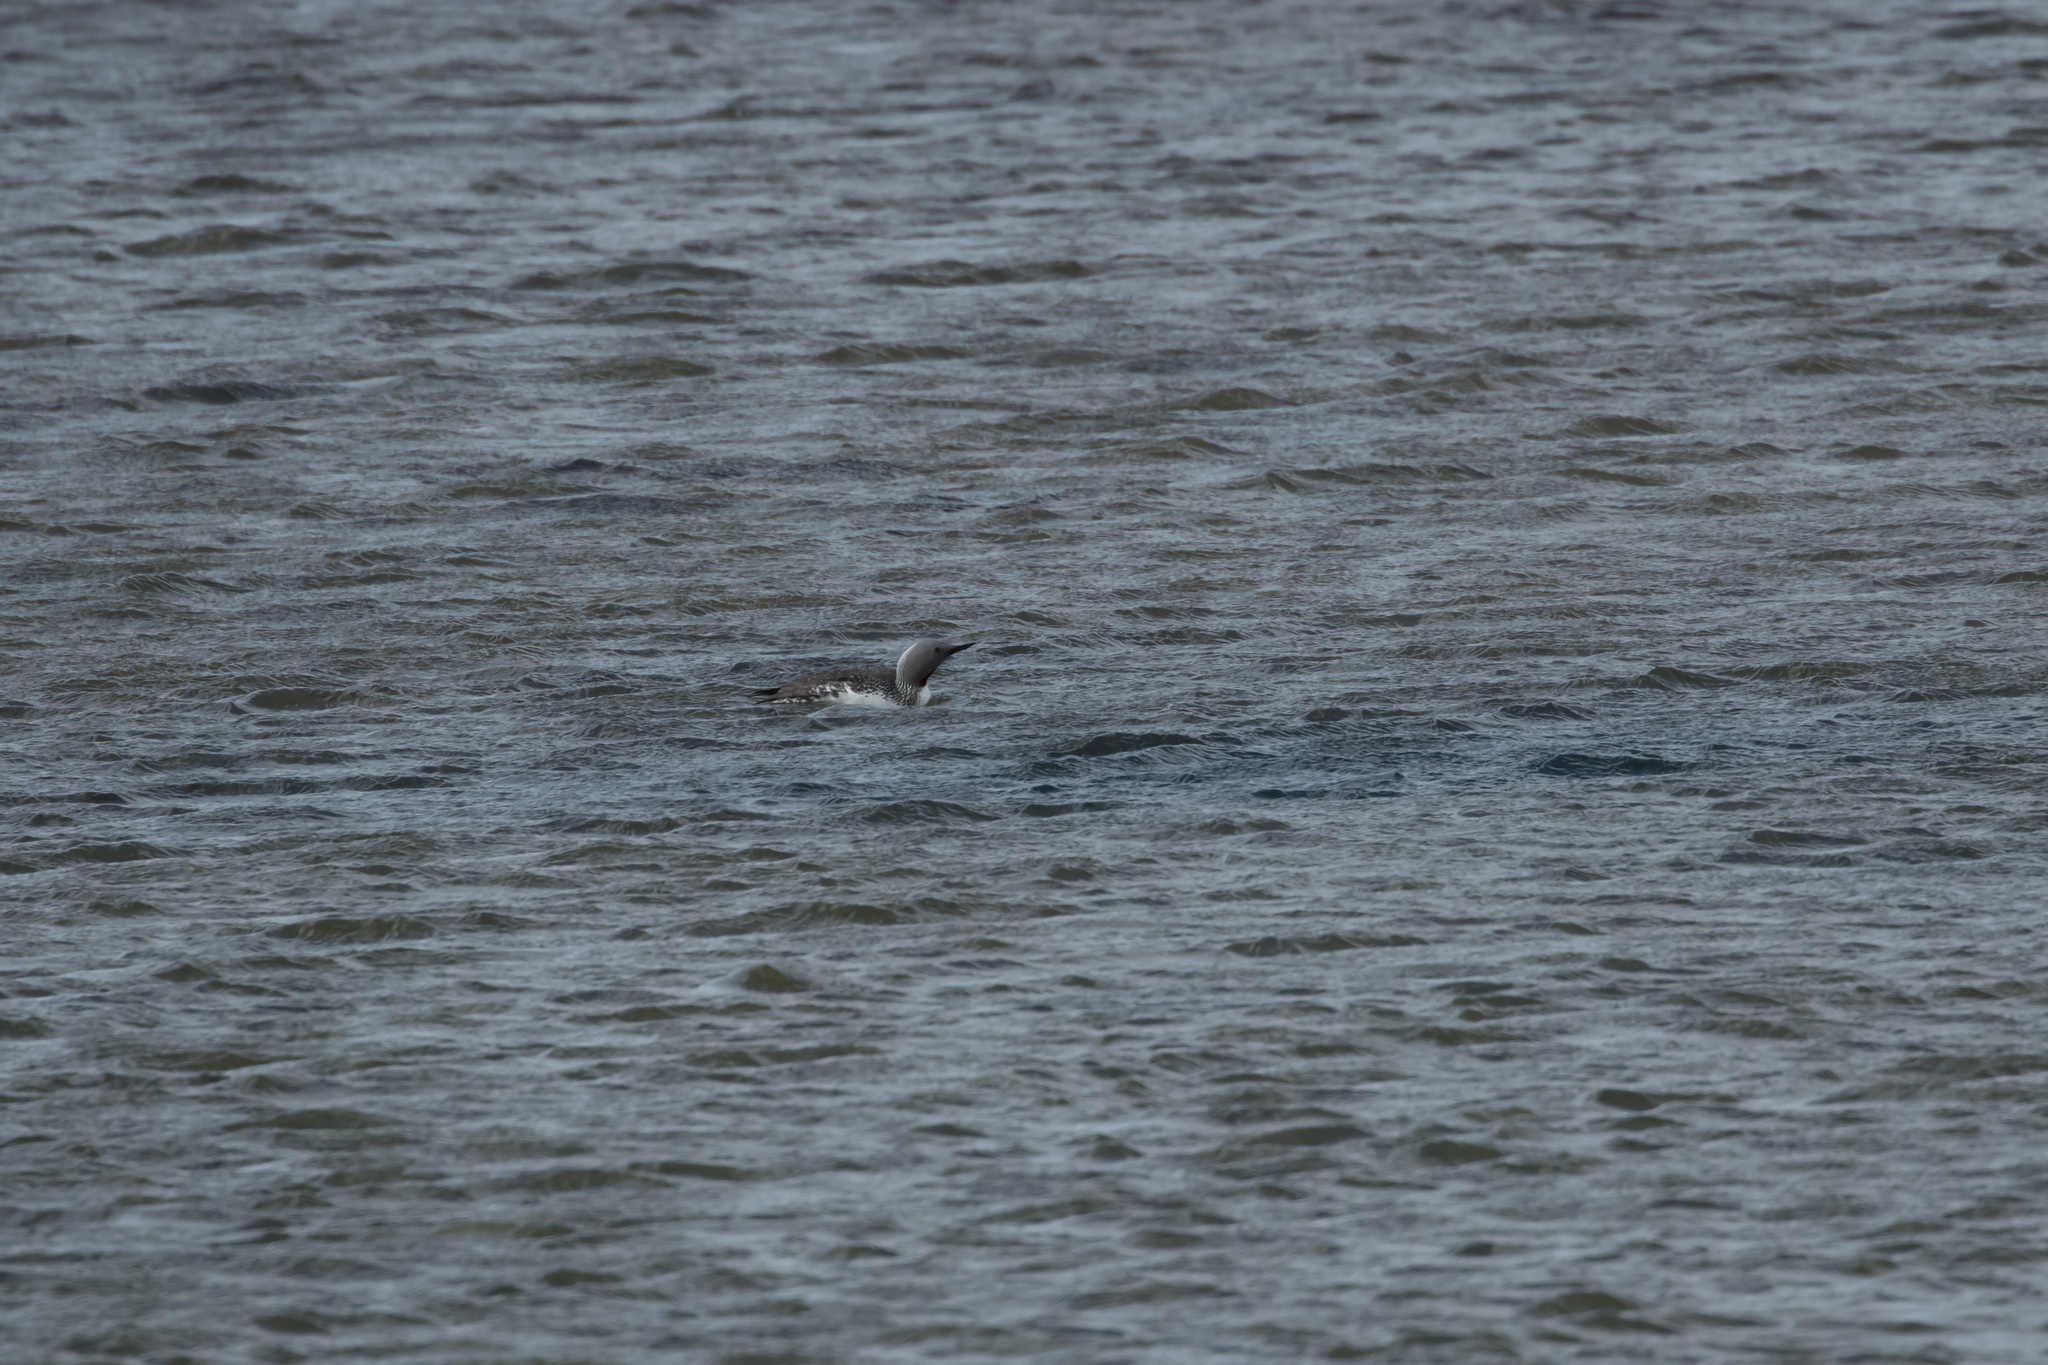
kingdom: Animalia
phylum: Chordata
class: Aves
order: Gaviiformes
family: Gaviidae
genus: Gavia
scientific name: Gavia stellata
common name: Red-throated loon
